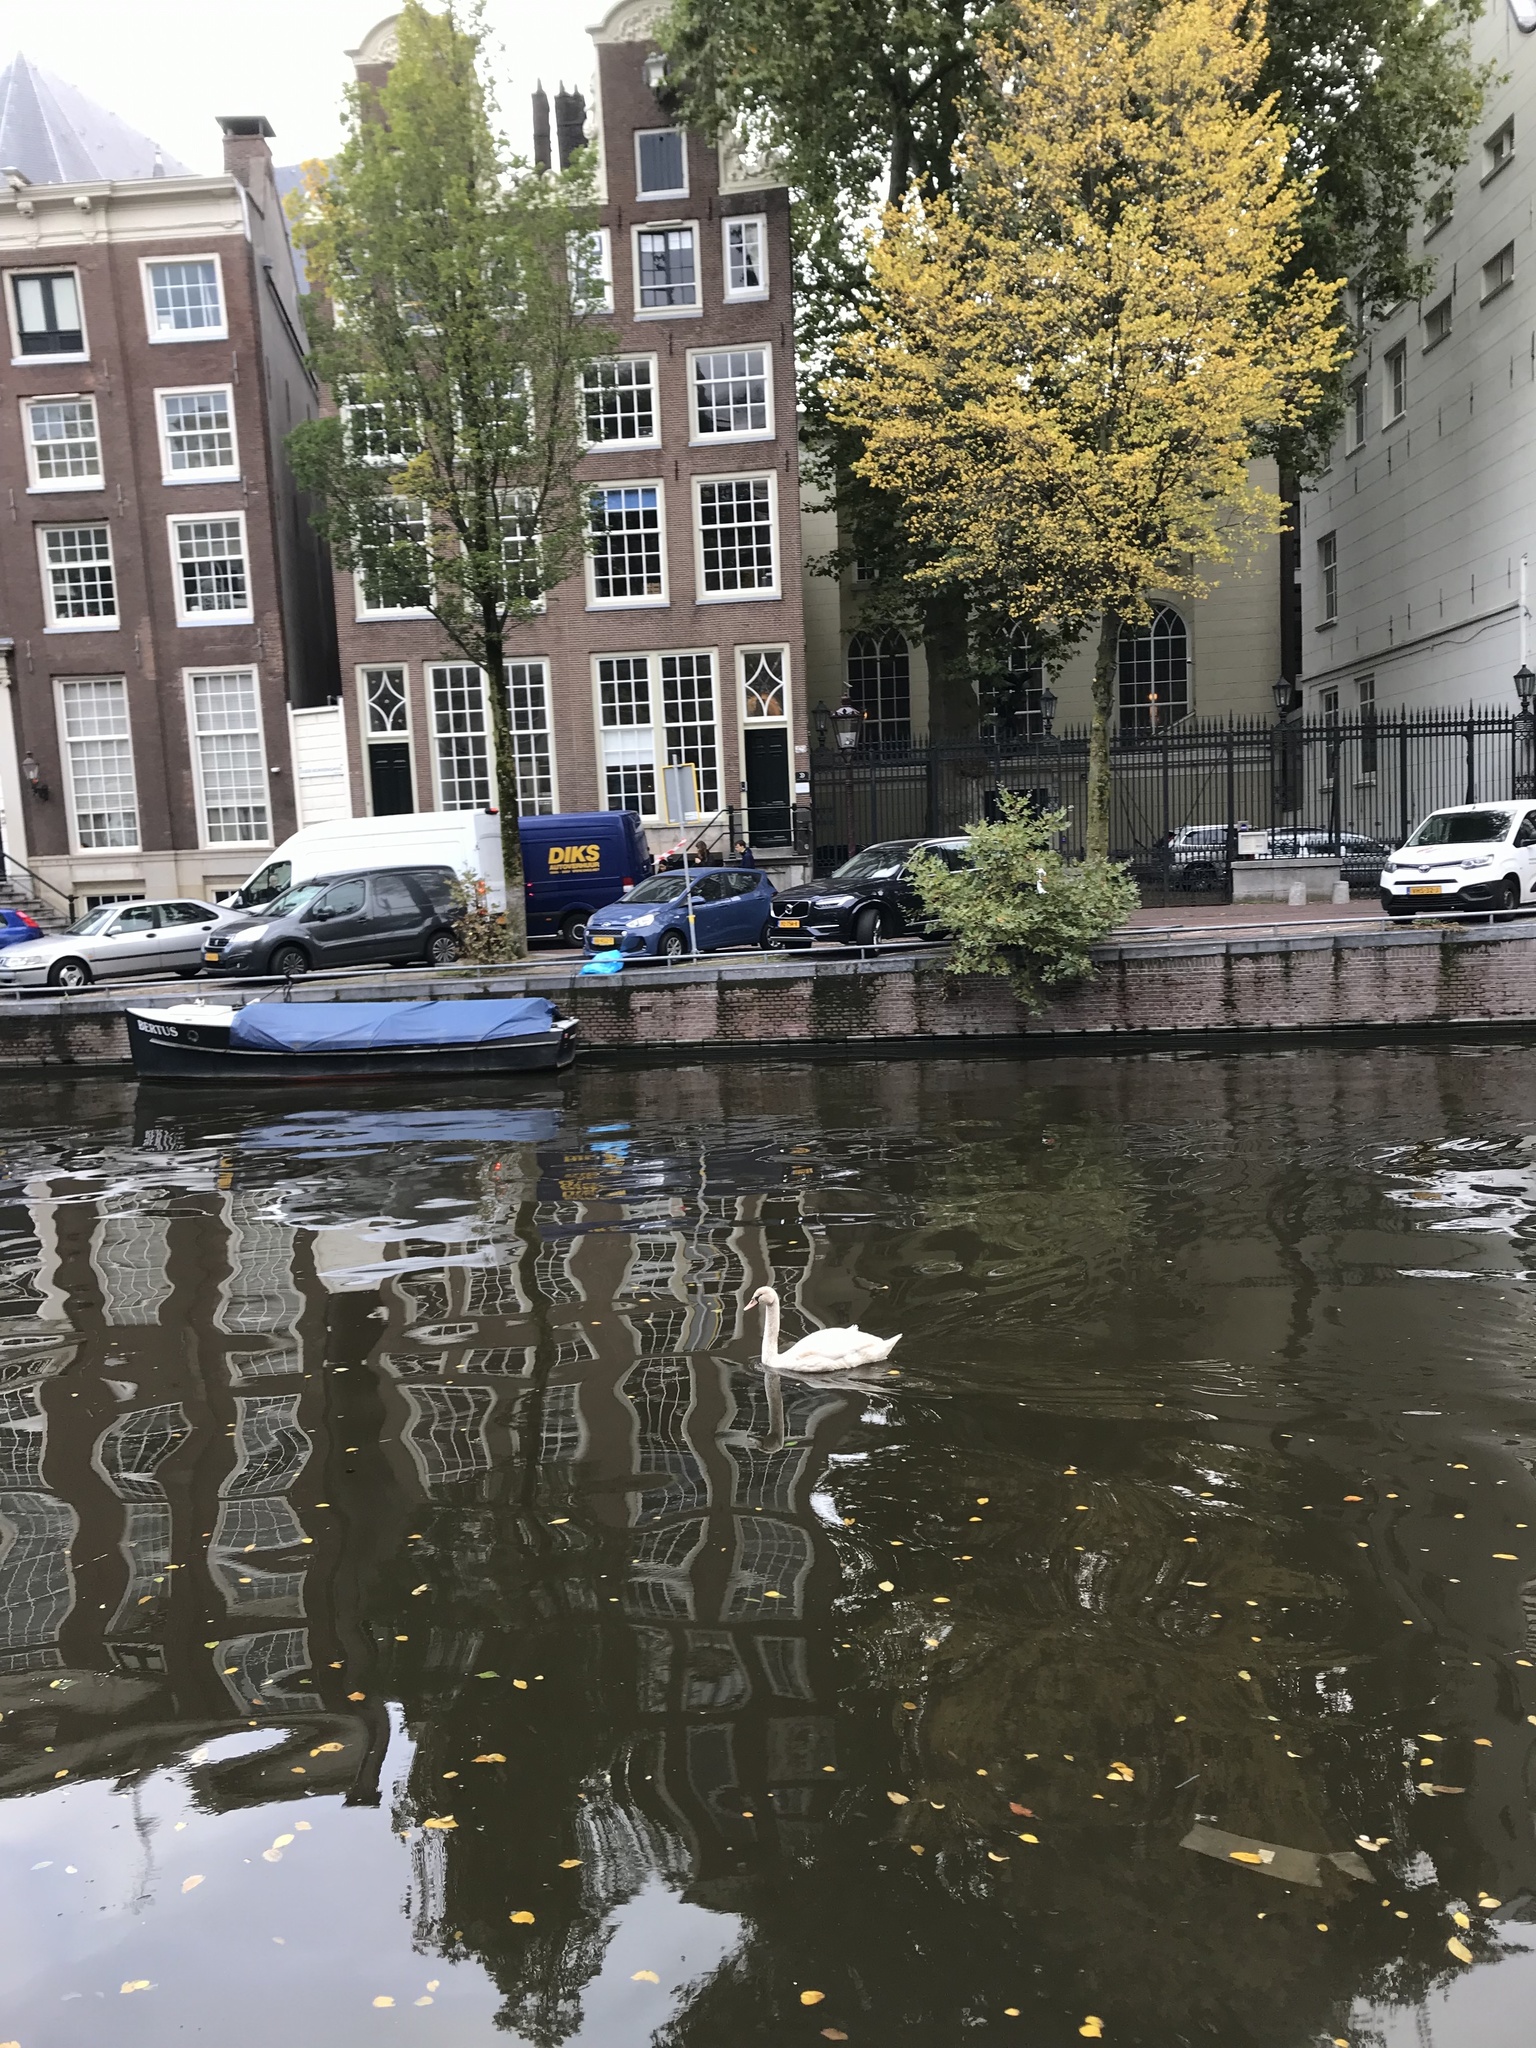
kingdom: Animalia
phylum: Chordata
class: Aves
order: Anseriformes
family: Anatidae
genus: Cygnus
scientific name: Cygnus olor
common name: Mute swan
